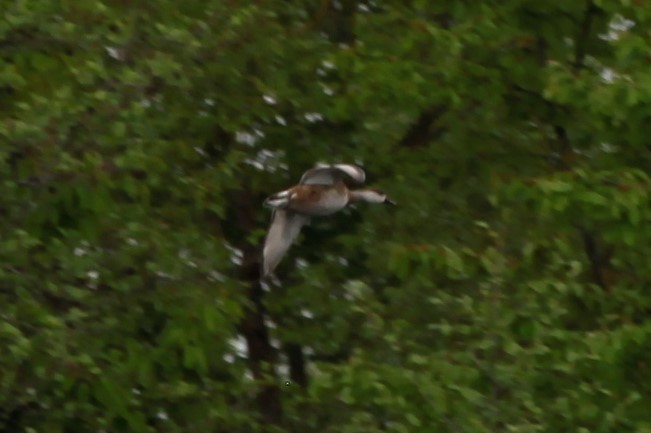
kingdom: Animalia
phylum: Chordata
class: Aves
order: Anseriformes
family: Anatidae
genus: Netta
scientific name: Netta rufina
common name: Red-crested pochard
